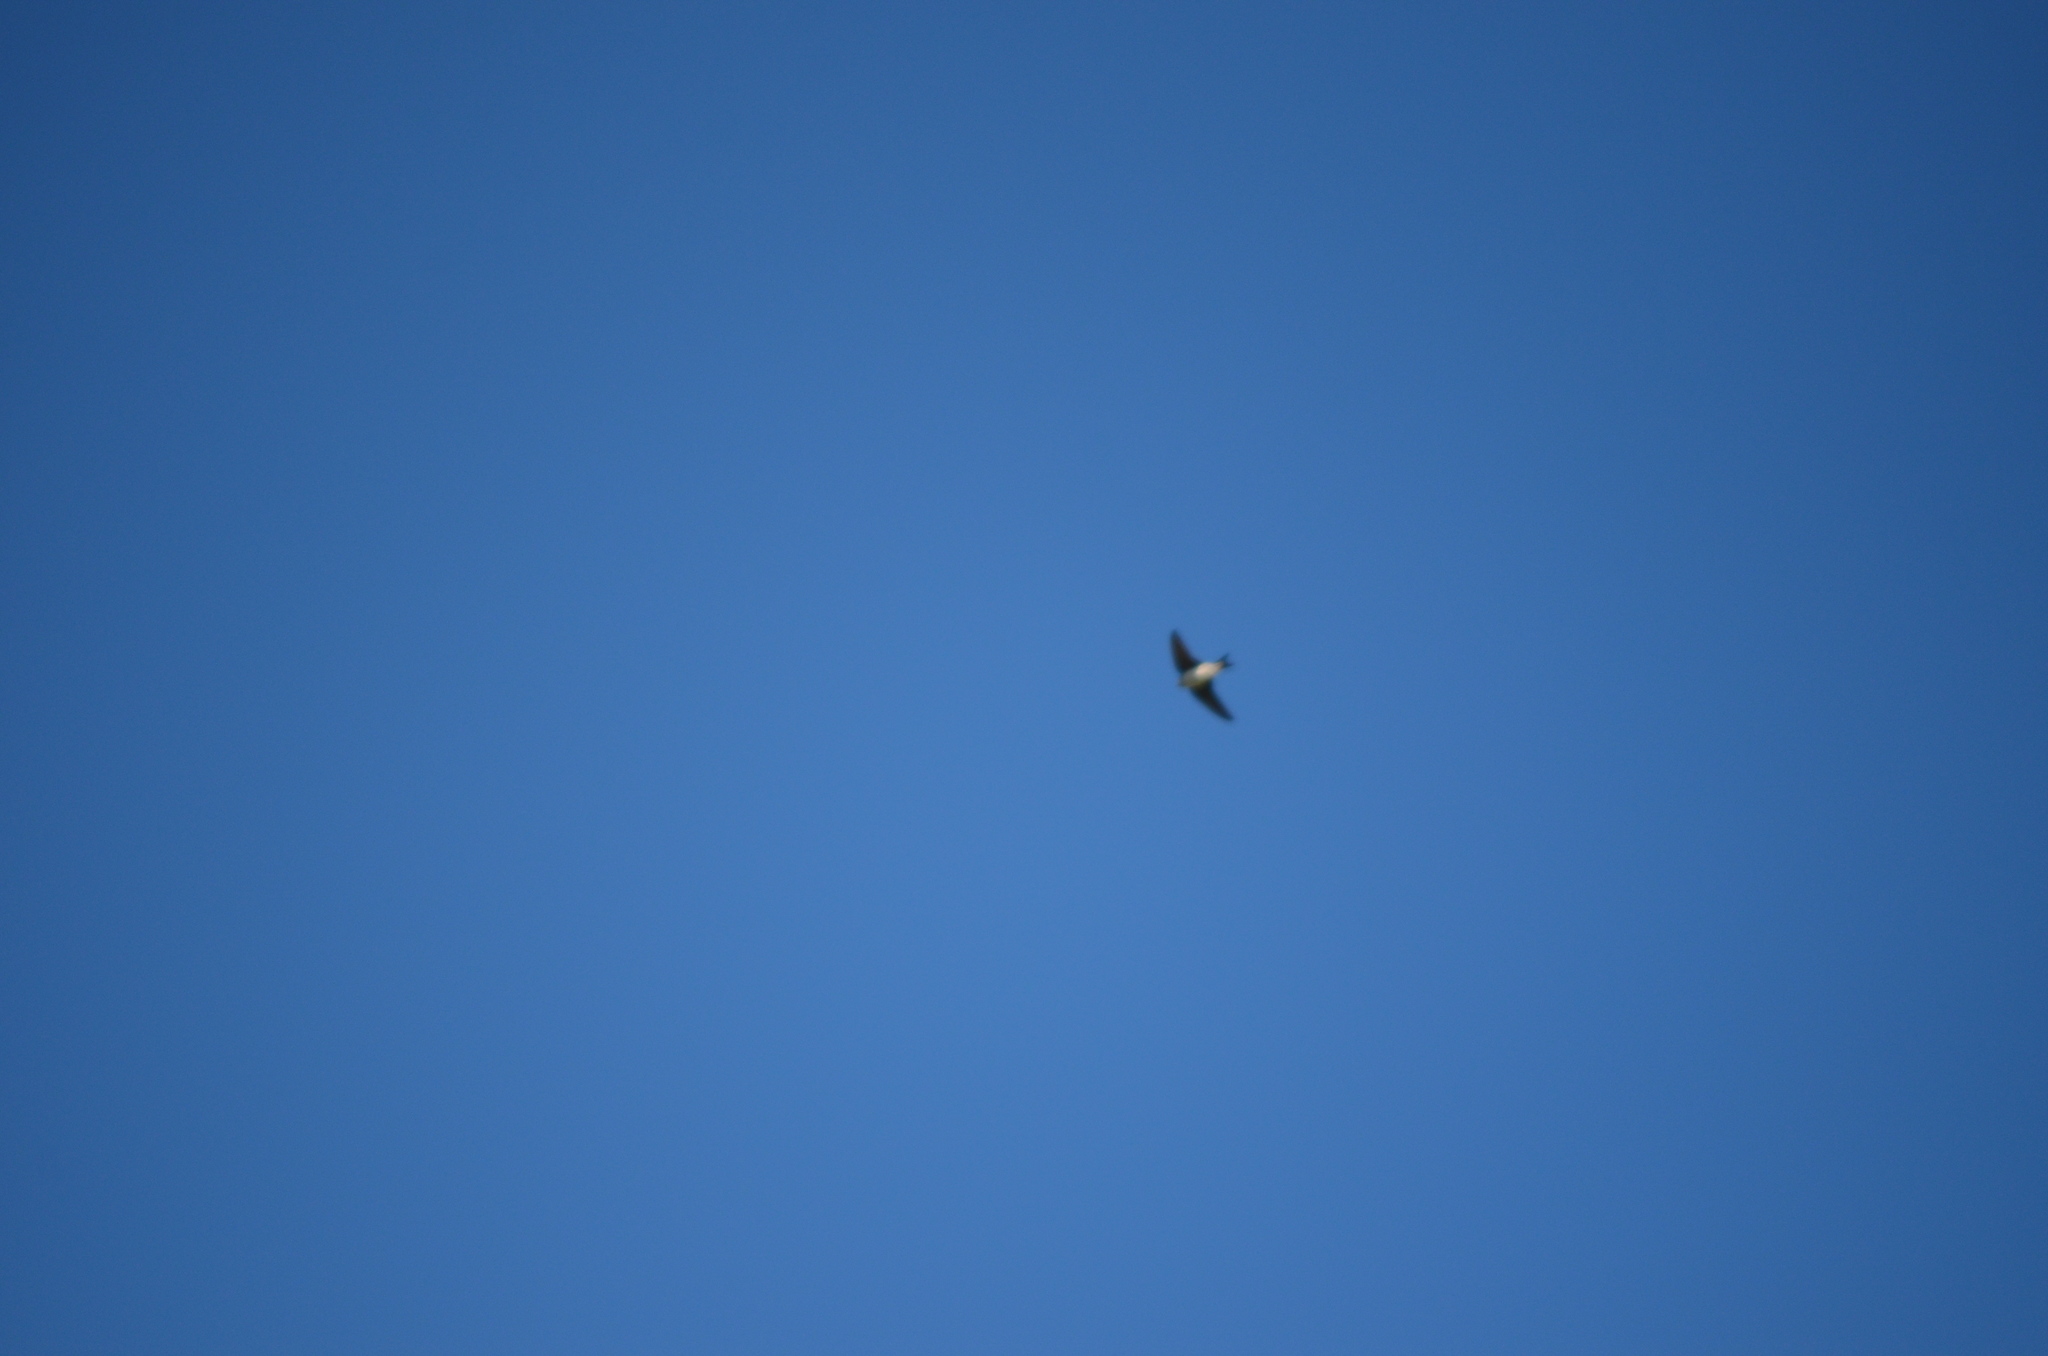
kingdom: Animalia
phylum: Chordata
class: Aves
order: Passeriformes
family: Hirundinidae
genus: Delichon
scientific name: Delichon urbicum
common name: Common house martin
